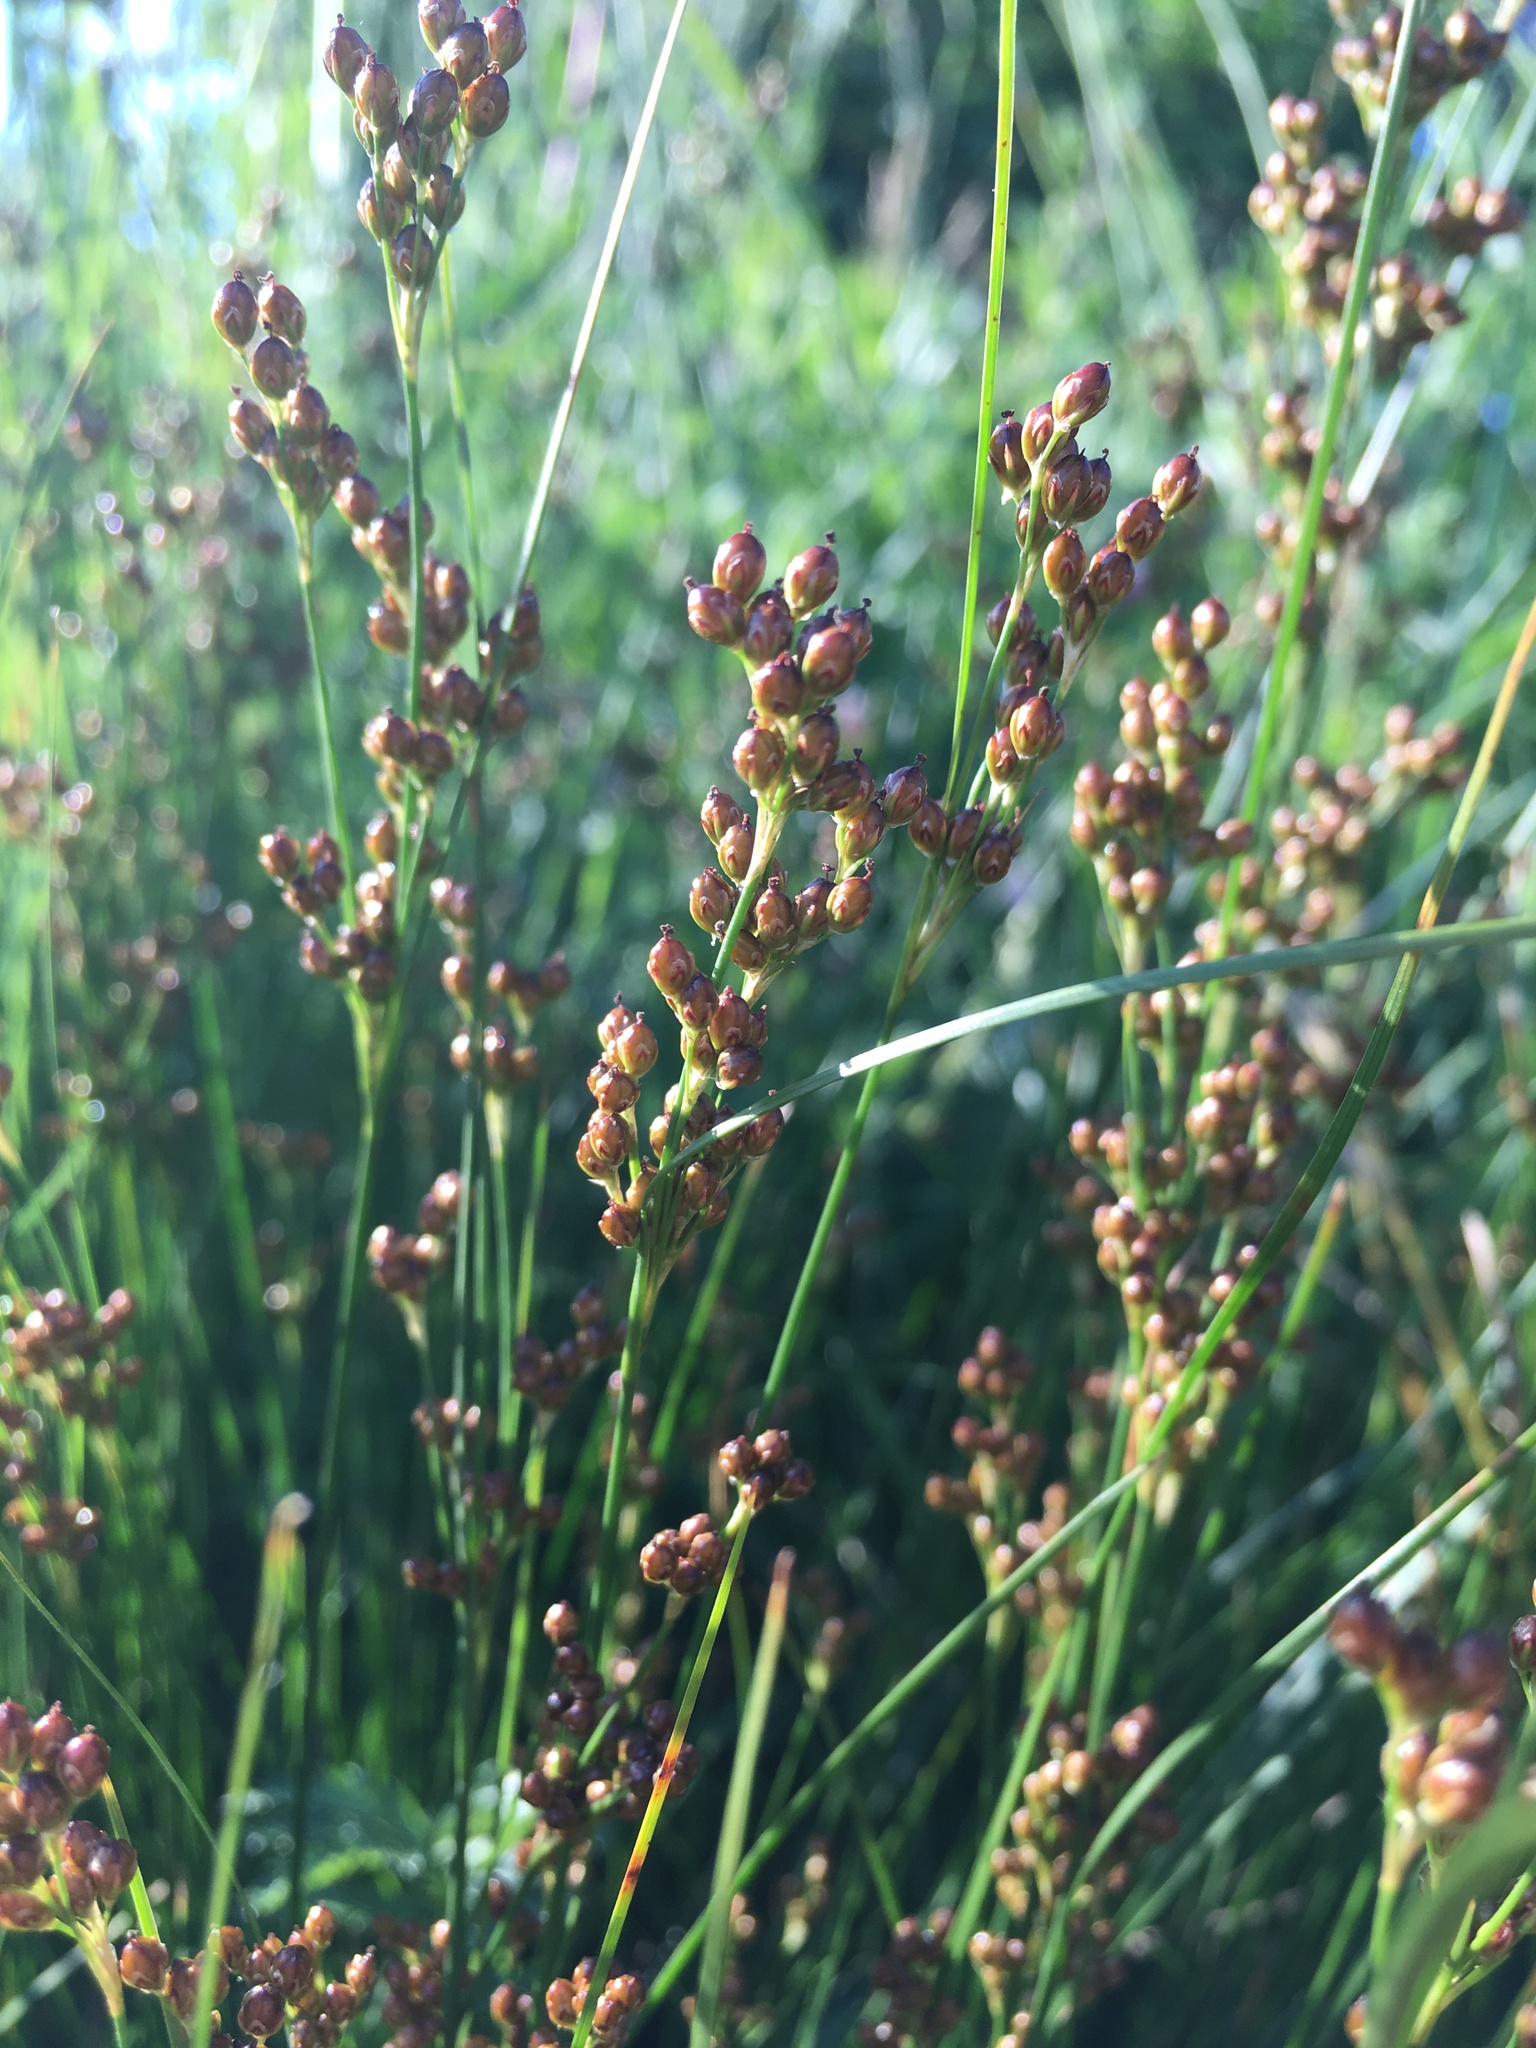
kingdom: Plantae
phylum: Tracheophyta
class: Liliopsida
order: Poales
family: Juncaceae
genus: Juncus
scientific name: Juncus compressus
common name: Round-fruited rush
